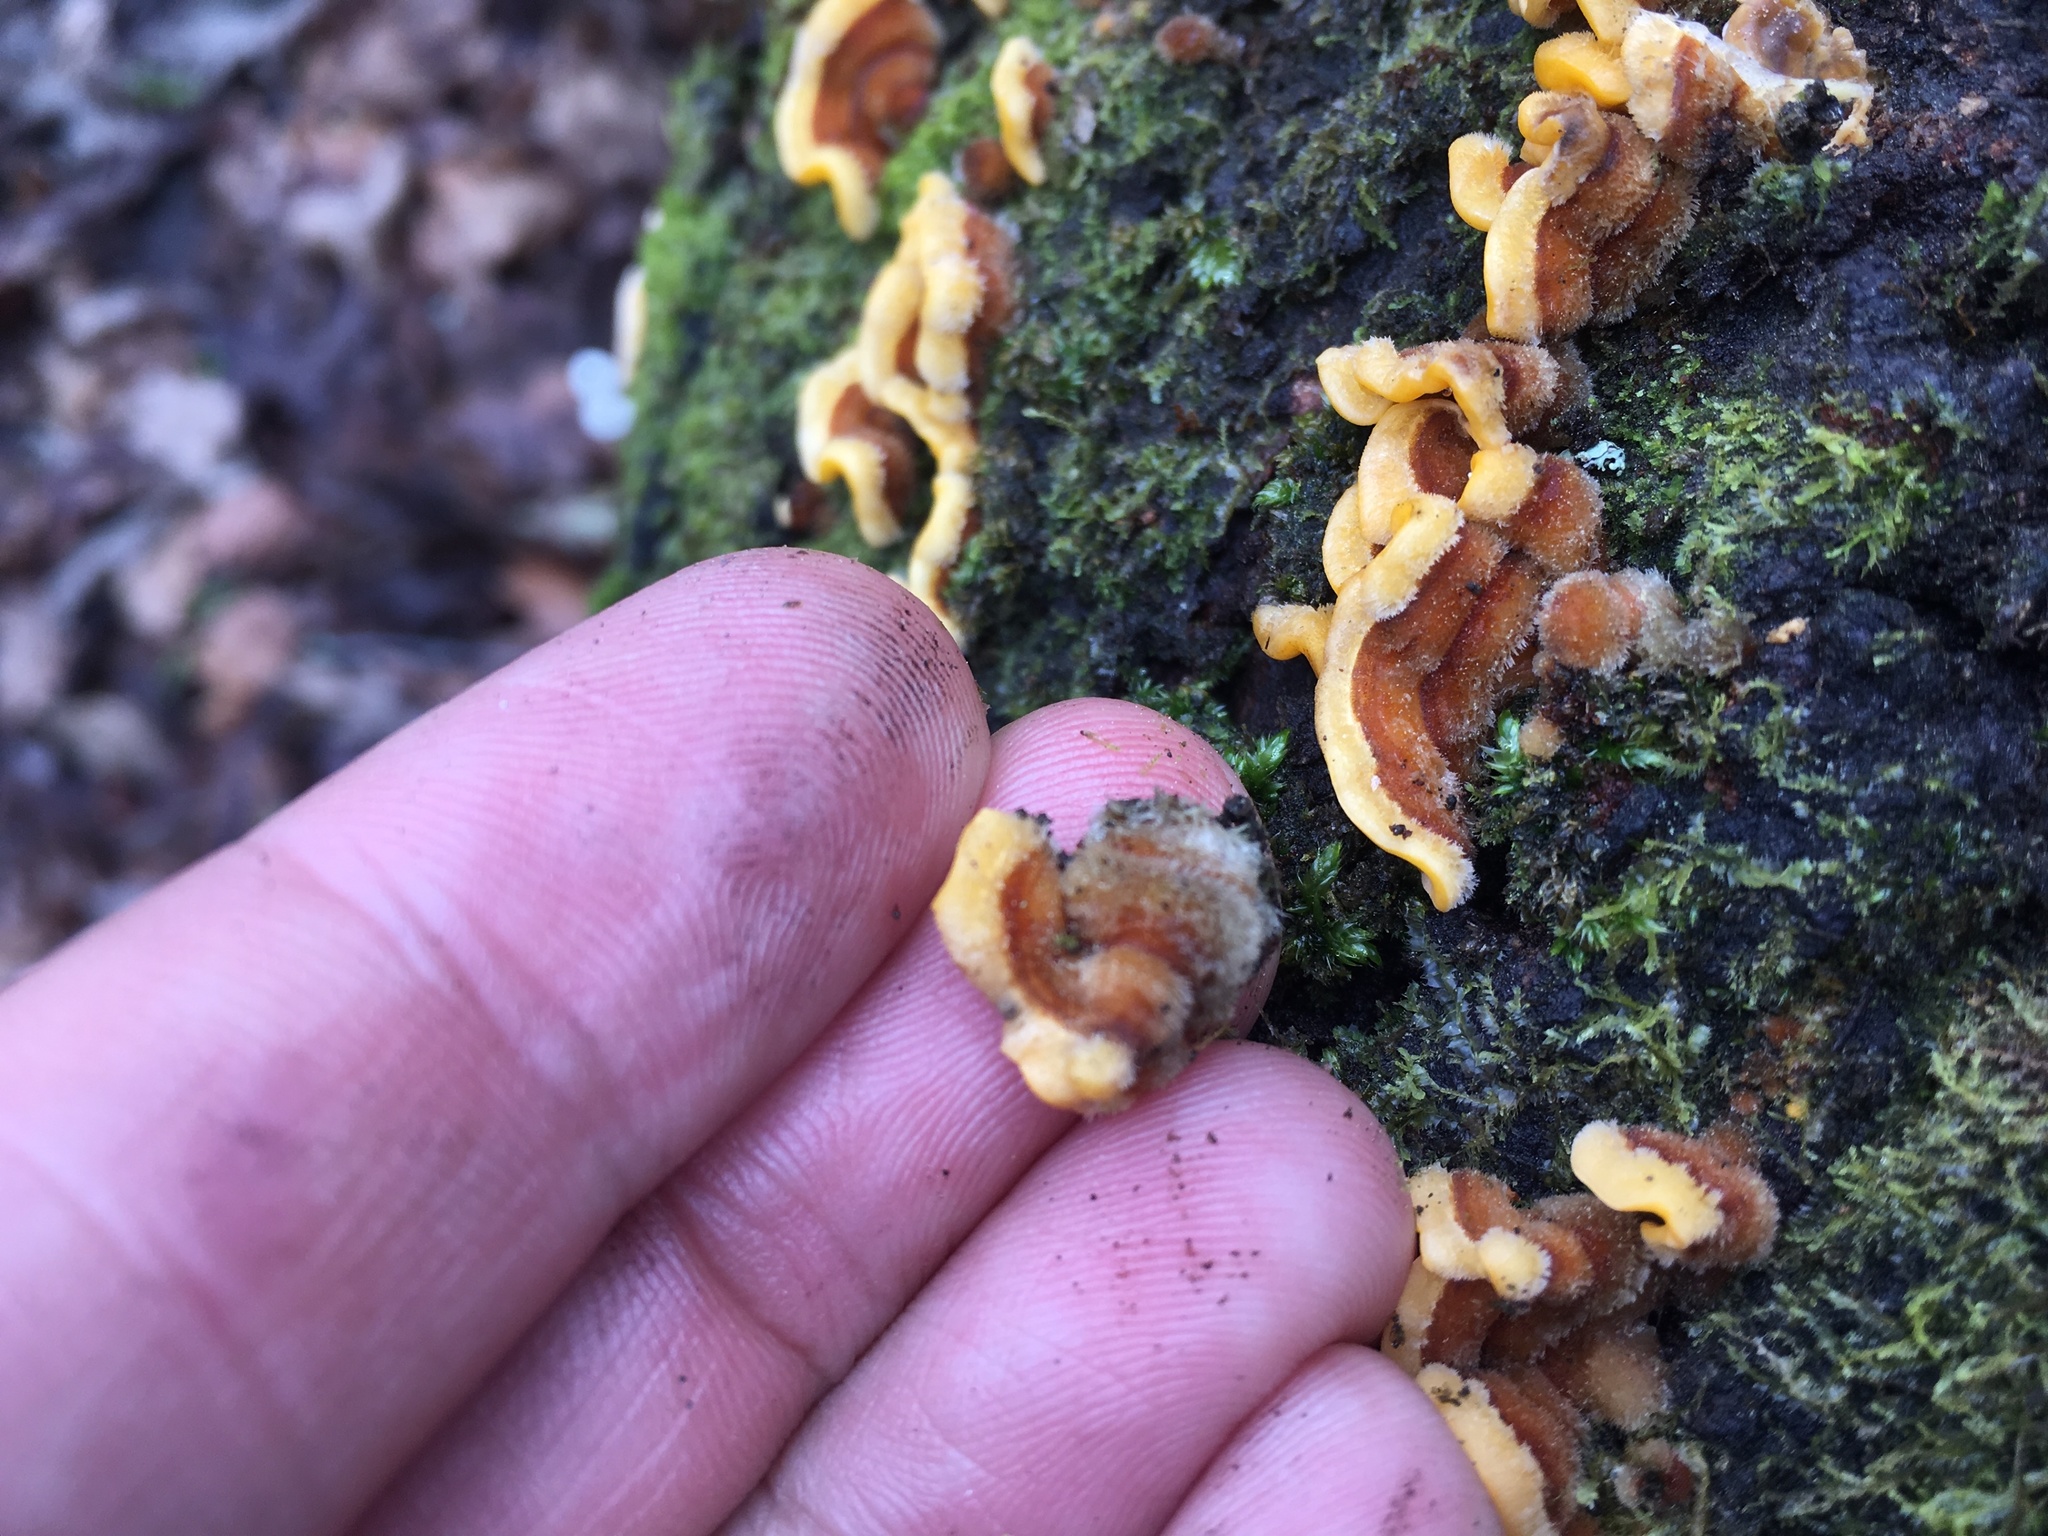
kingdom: Fungi
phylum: Basidiomycota
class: Agaricomycetes
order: Russulales
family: Stereaceae
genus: Stereum
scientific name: Stereum hirsutum
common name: Hairy curtain crust
